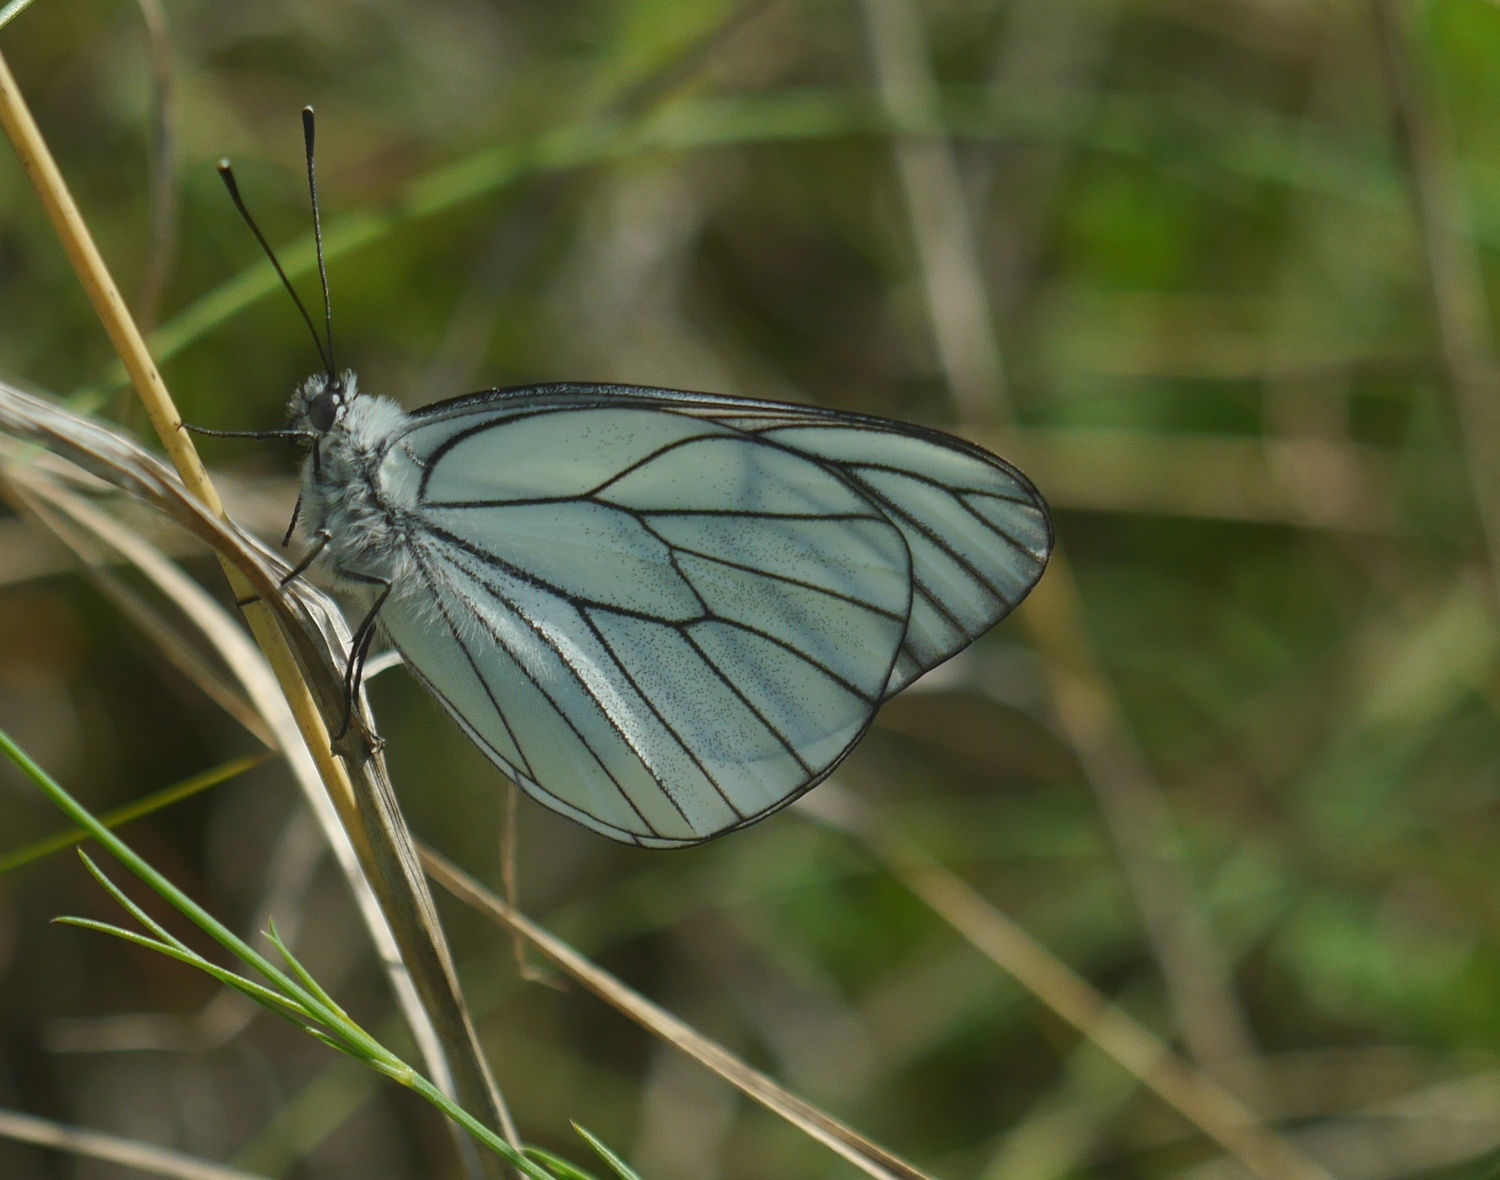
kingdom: Animalia
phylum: Arthropoda
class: Insecta
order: Lepidoptera
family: Pieridae
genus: Aporia
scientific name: Aporia crataegi
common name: Black-veined white
